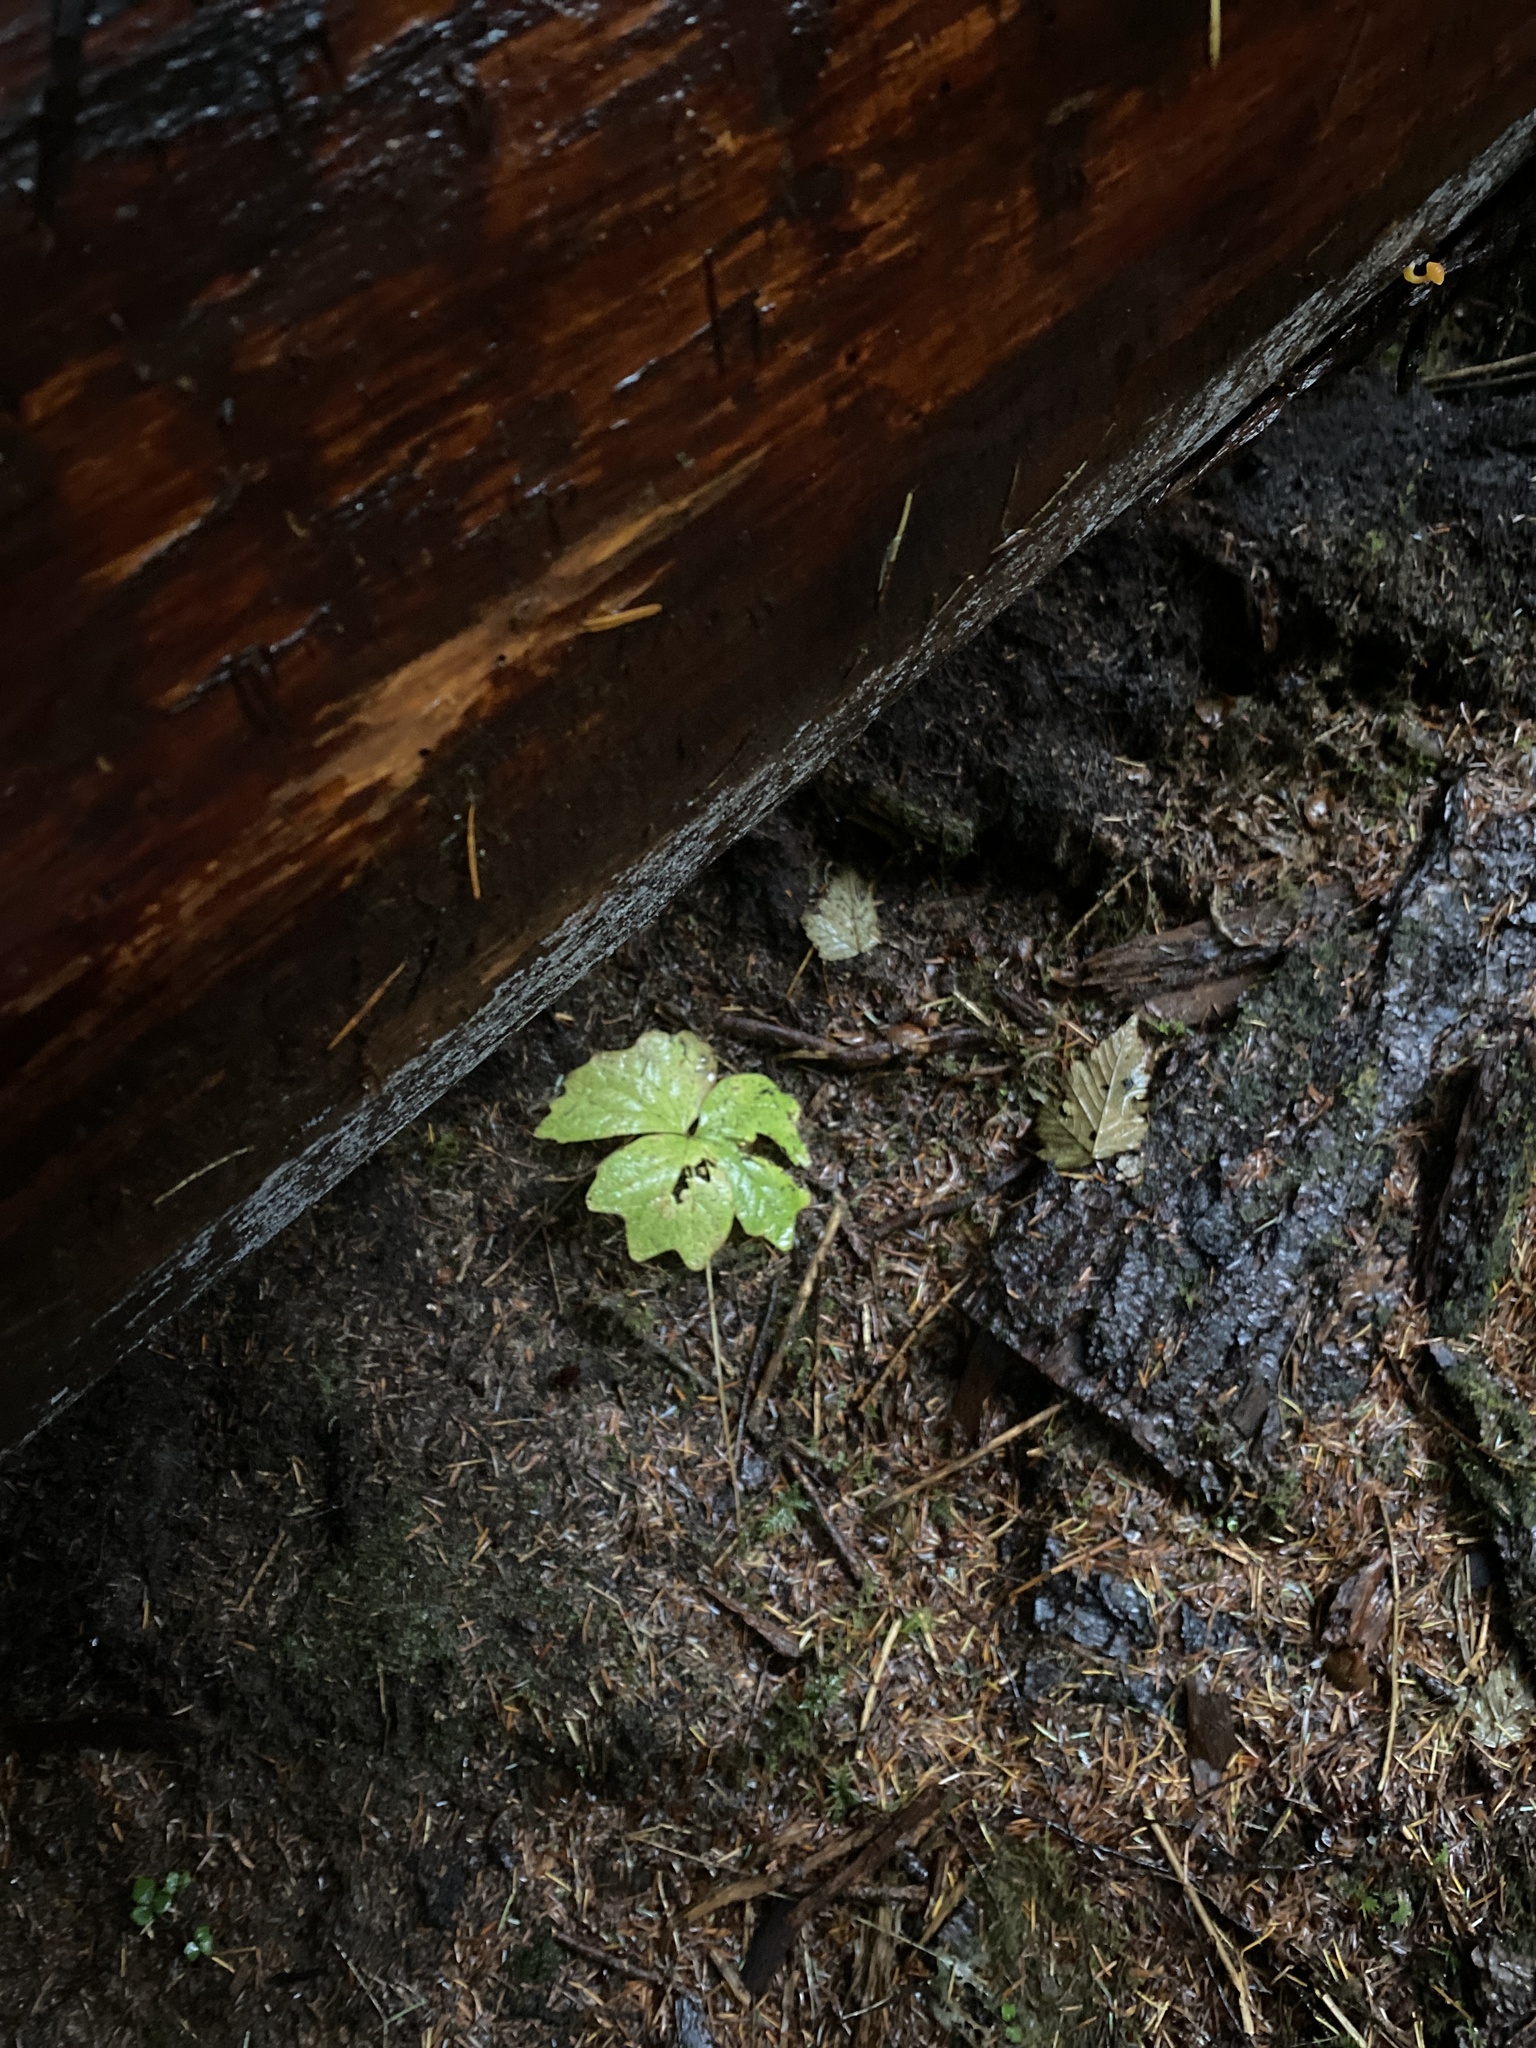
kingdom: Plantae
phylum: Tracheophyta
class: Magnoliopsida
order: Ranunculales
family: Berberidaceae
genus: Achlys
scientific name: Achlys triphylla
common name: Vanilla-leaf
